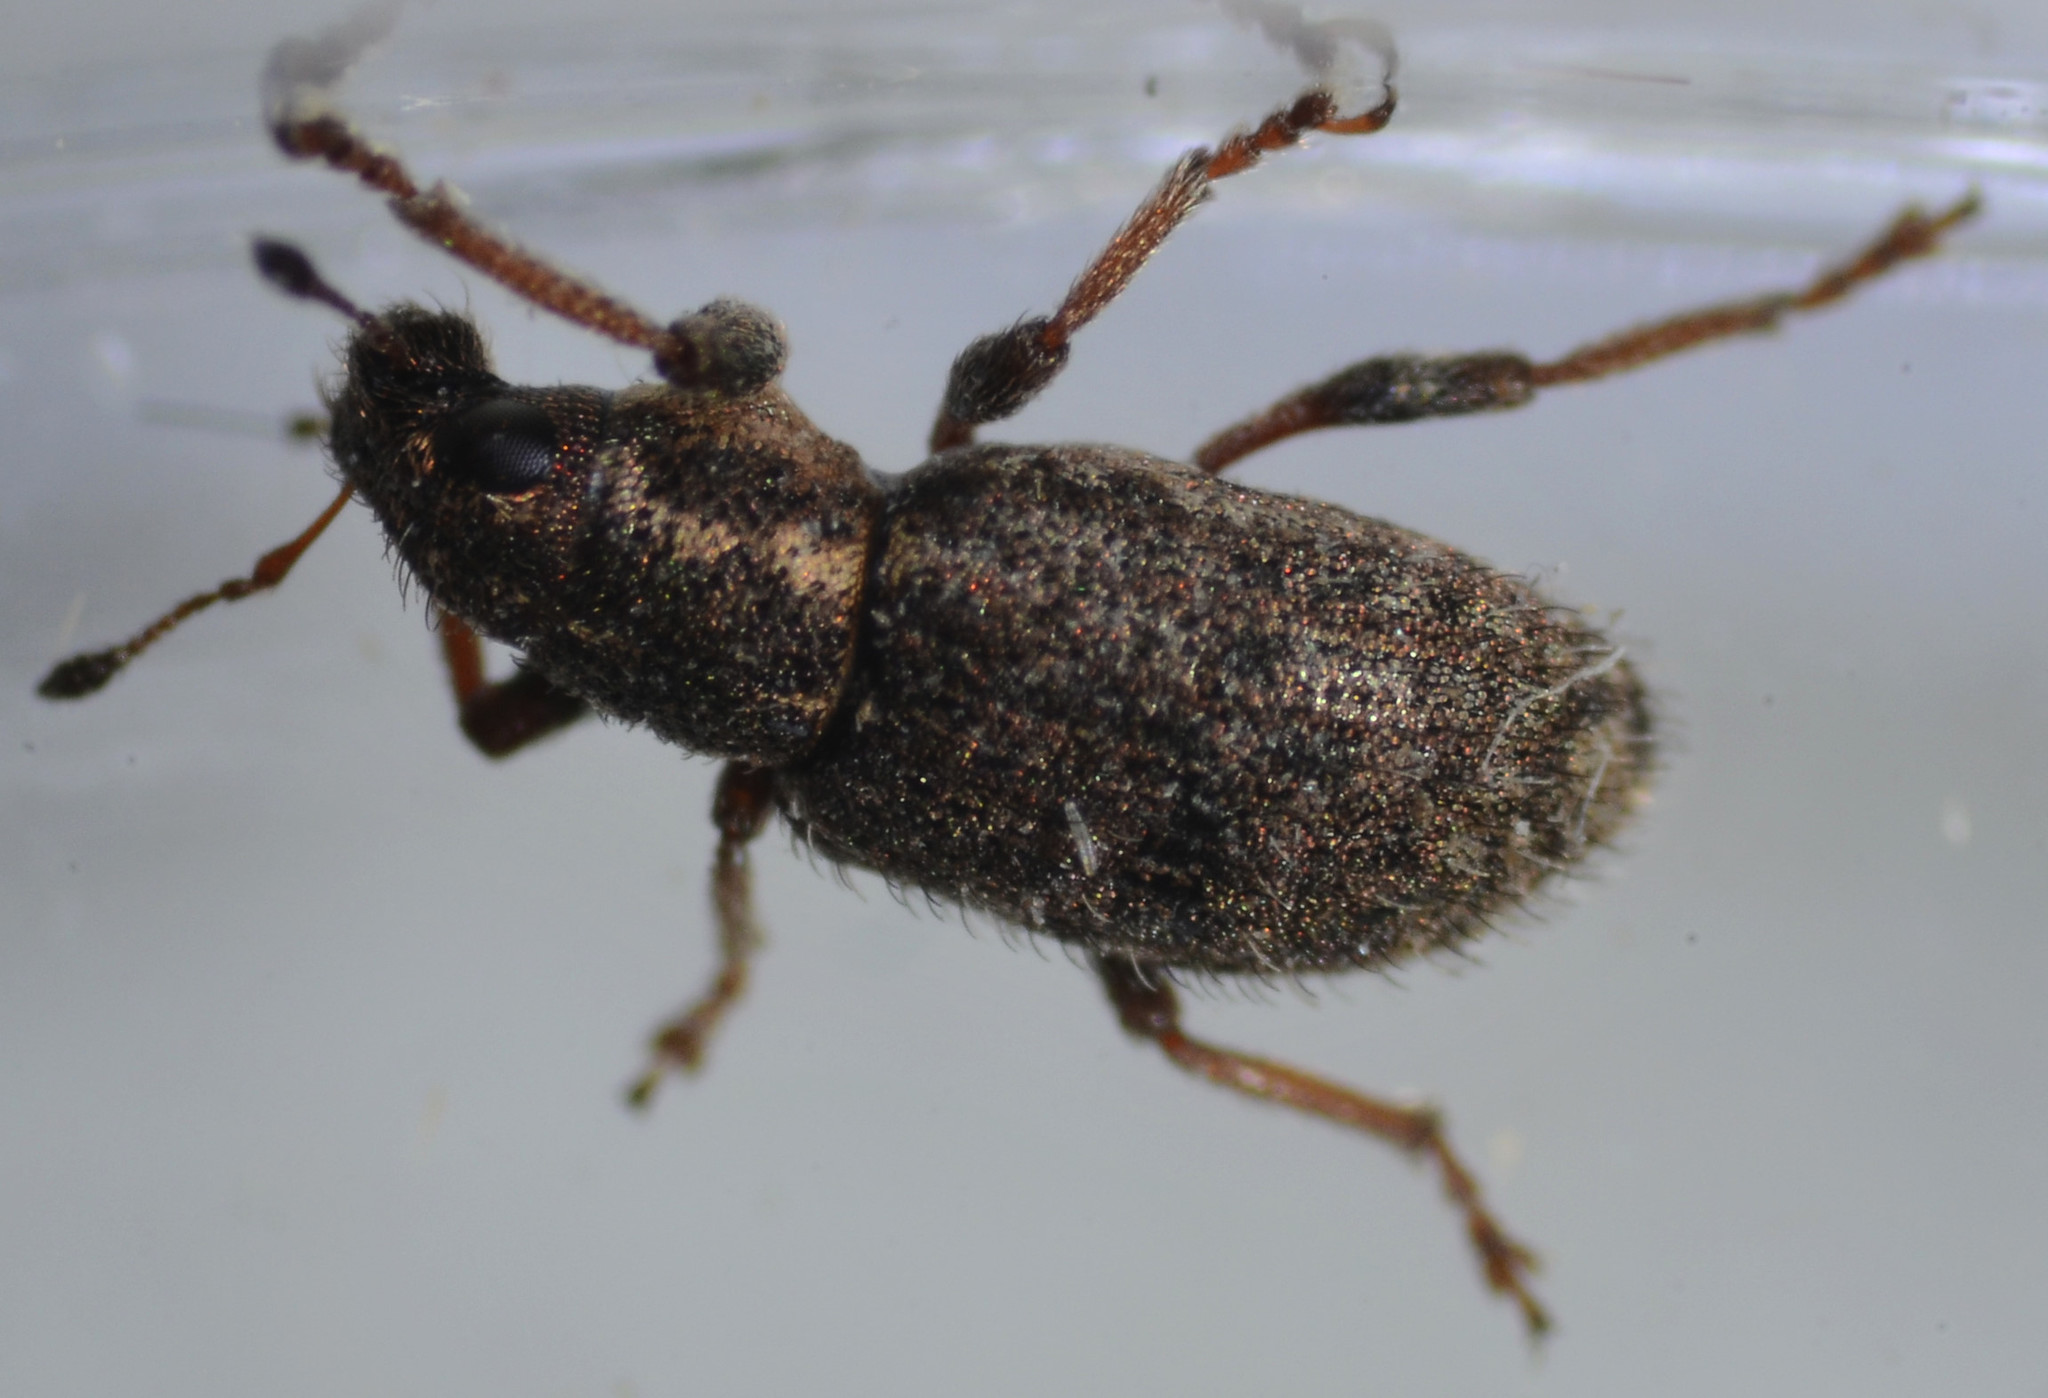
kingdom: Animalia
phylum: Arthropoda
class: Insecta
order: Coleoptera
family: Curculionidae
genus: Sitona
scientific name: Sitona hispidulus
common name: Clover weevil
